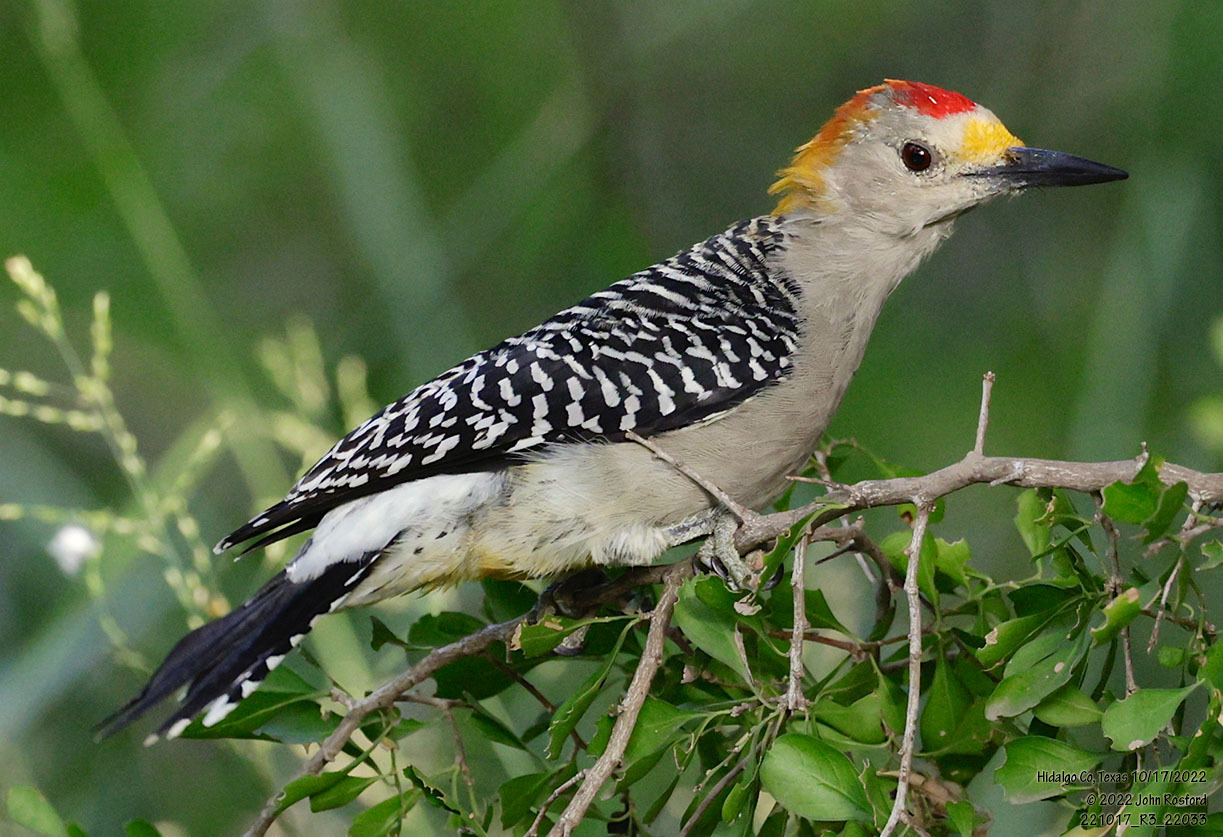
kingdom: Animalia
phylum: Chordata
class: Aves
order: Piciformes
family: Picidae
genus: Melanerpes
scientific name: Melanerpes aurifrons
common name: Golden-fronted woodpecker
